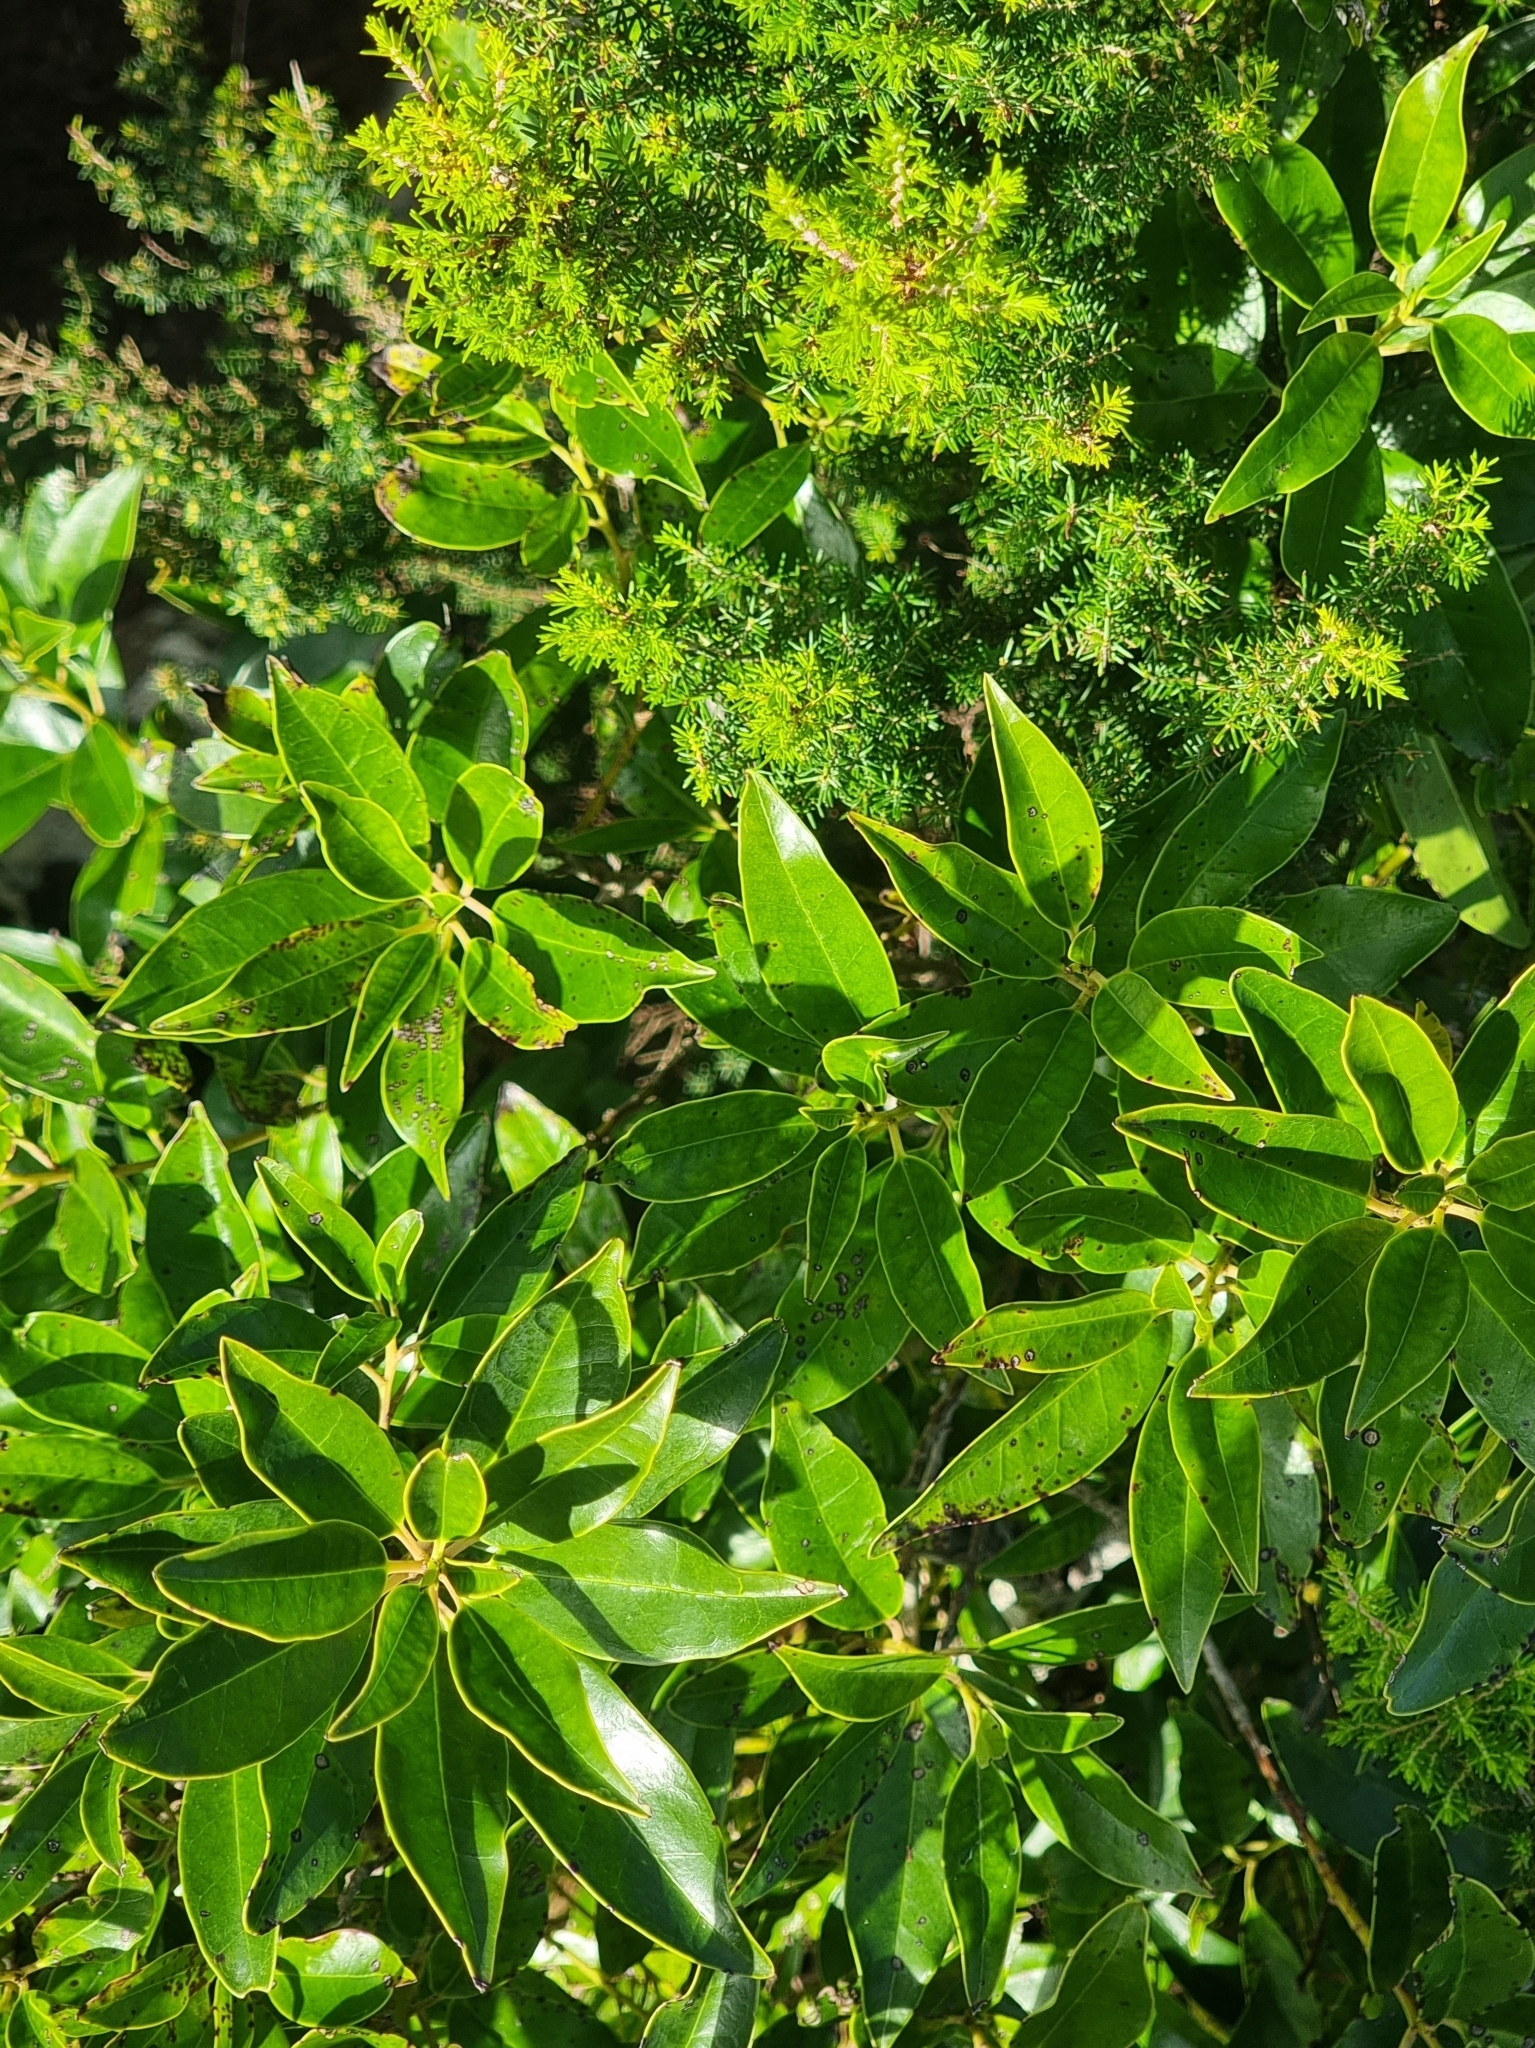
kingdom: Plantae
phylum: Tracheophyta
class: Magnoliopsida
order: Aquifoliales
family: Aquifoliaceae
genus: Ilex
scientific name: Ilex canariensis
